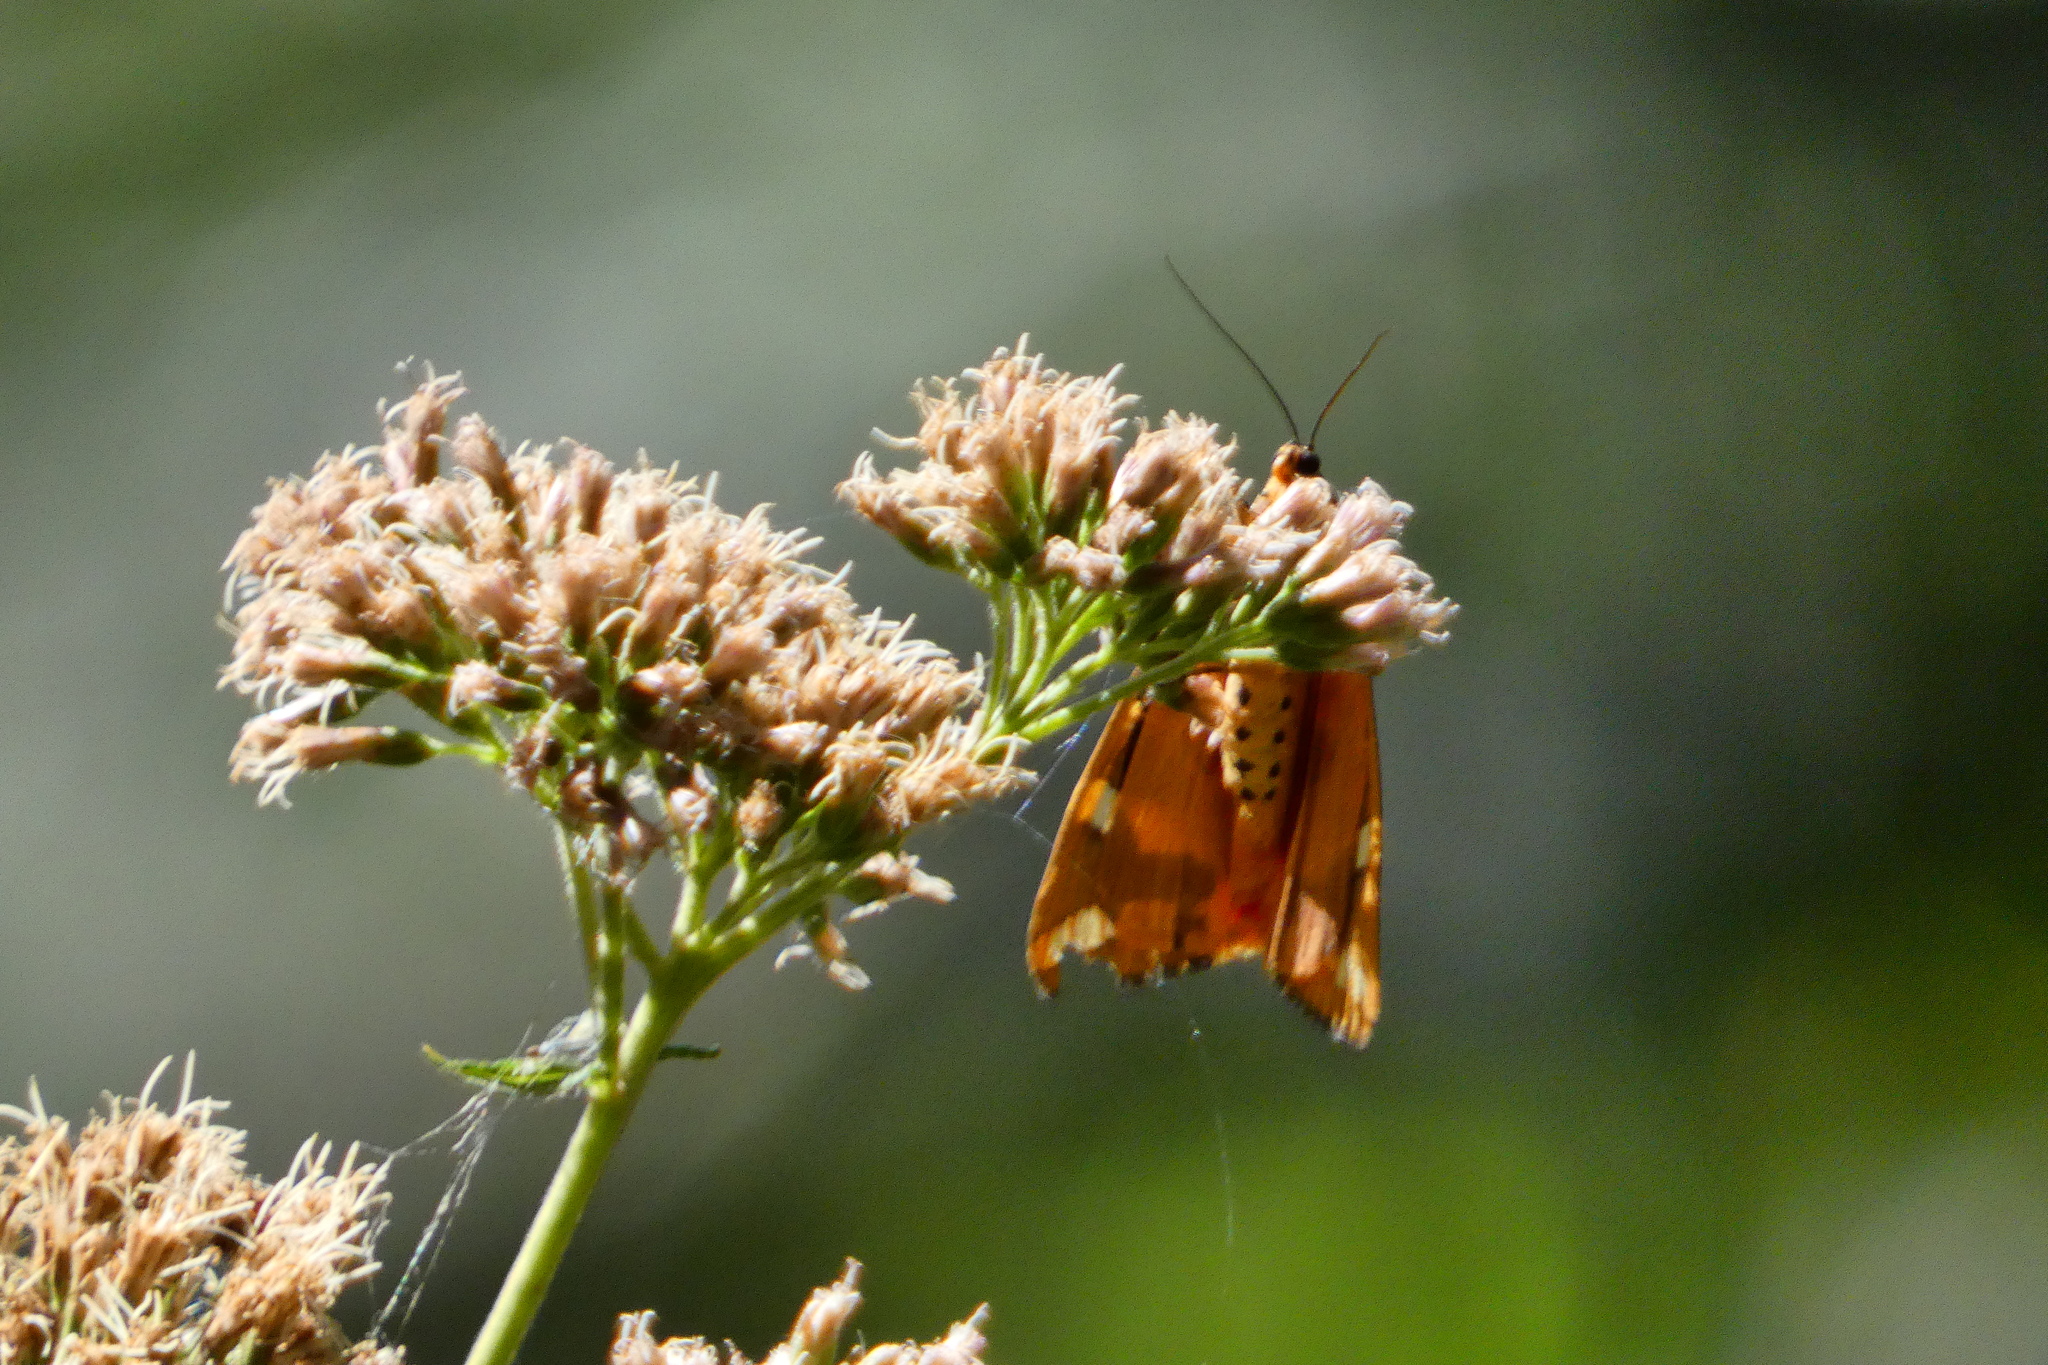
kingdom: Animalia
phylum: Arthropoda
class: Insecta
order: Lepidoptera
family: Erebidae
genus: Euplagia
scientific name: Euplagia quadripunctaria
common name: Jersey tiger
